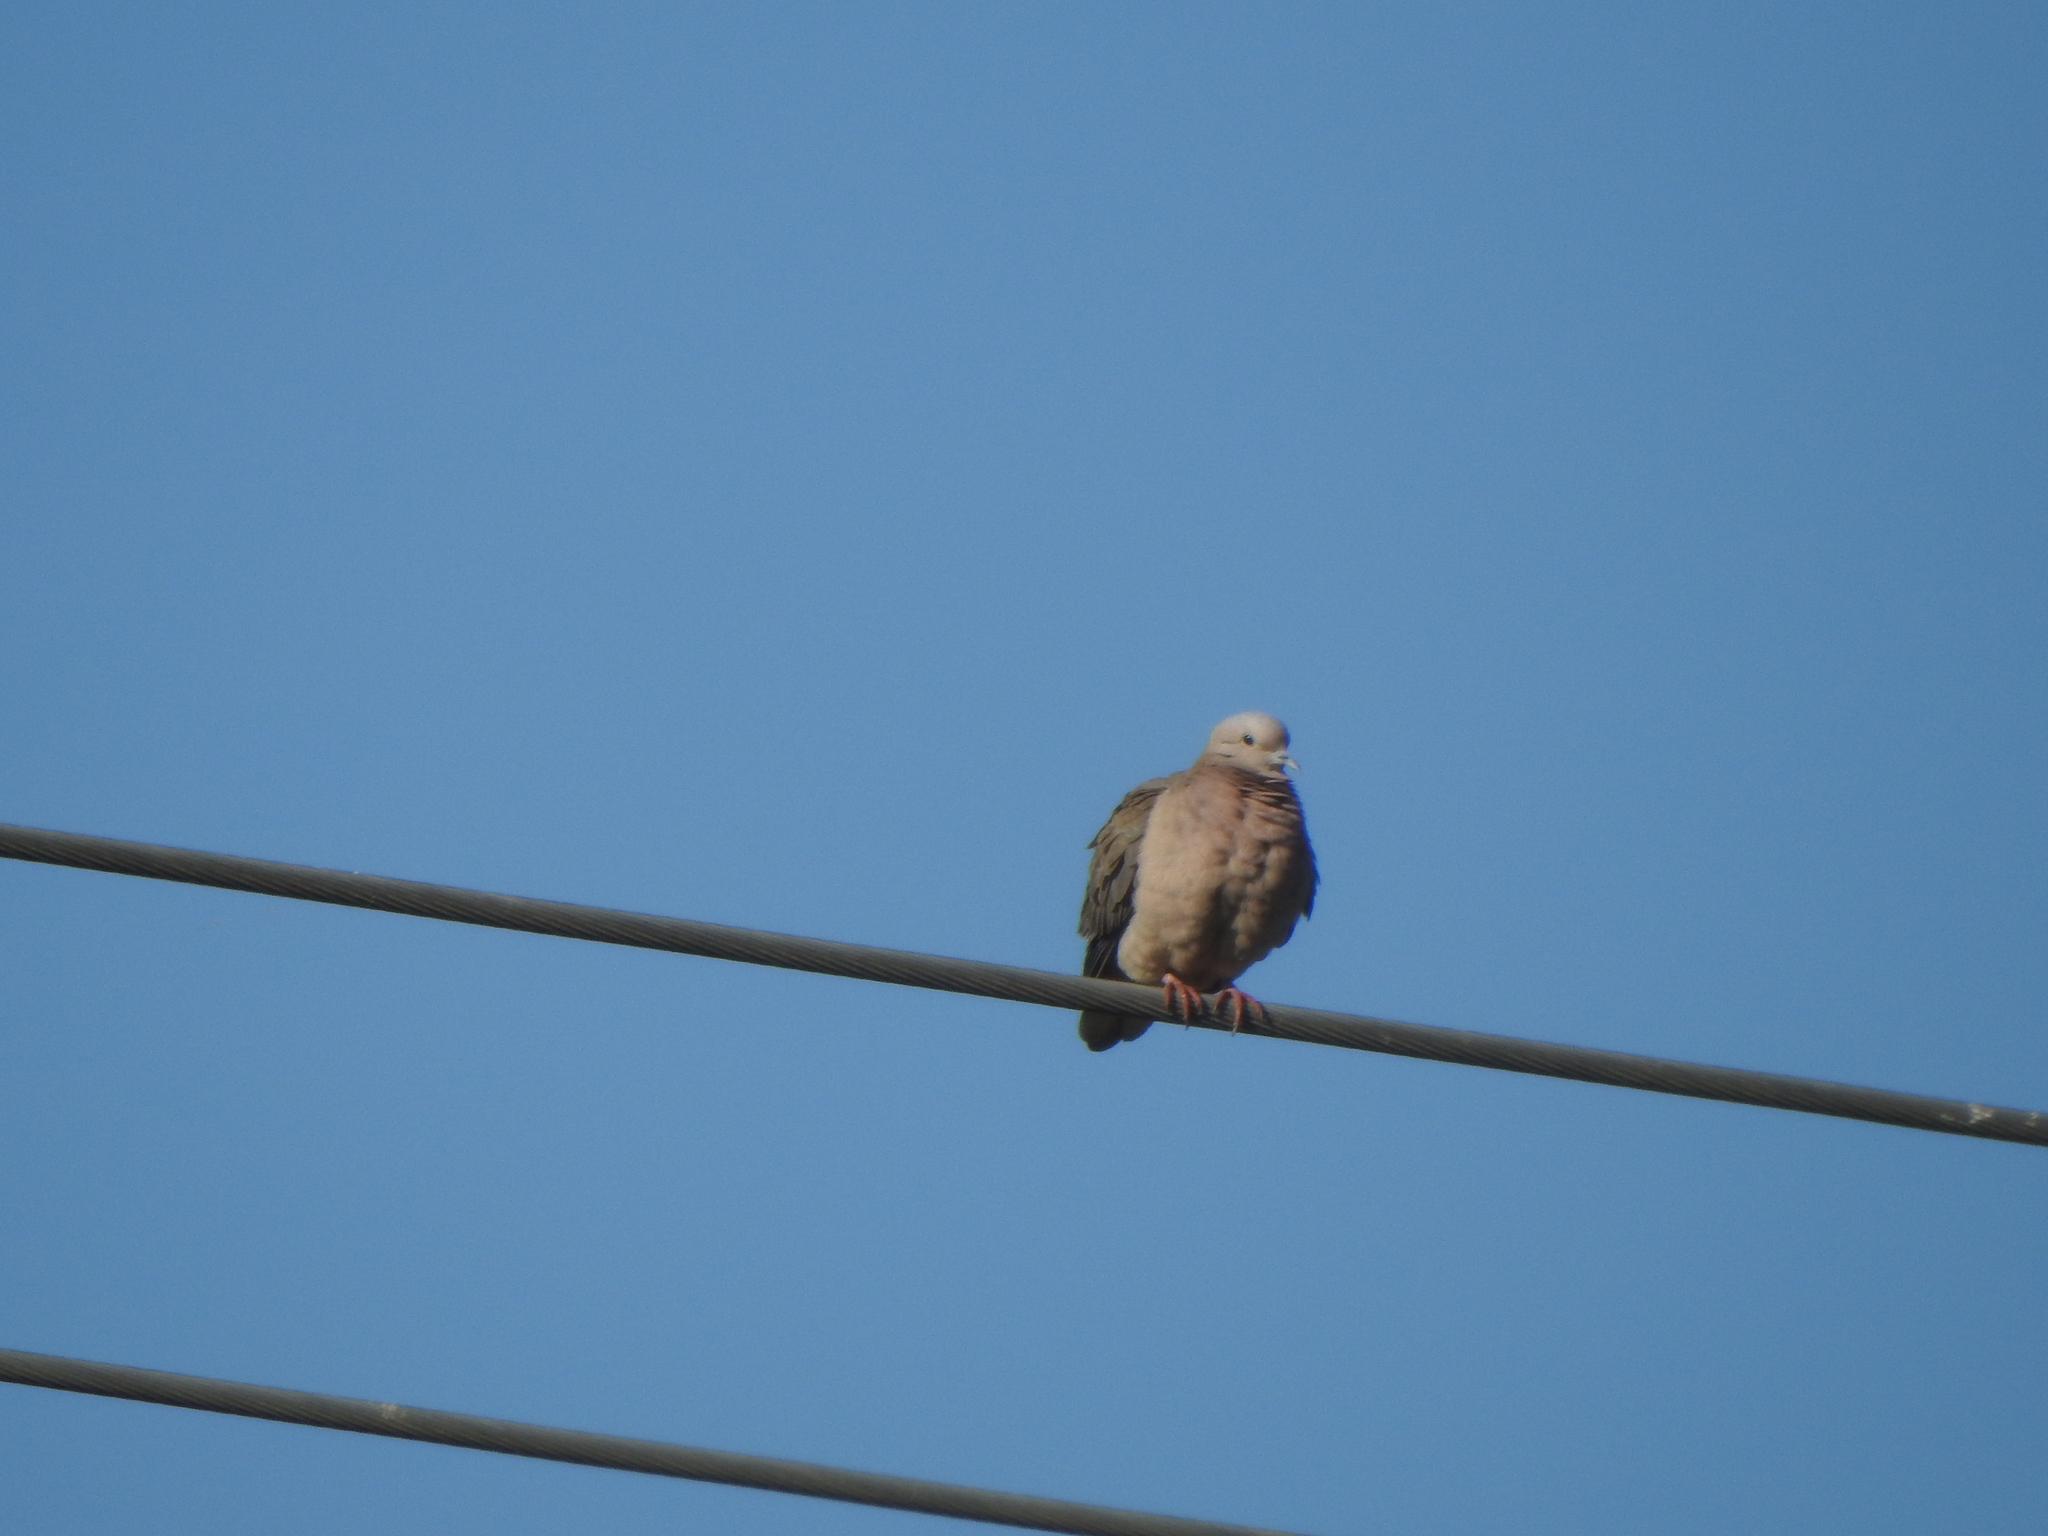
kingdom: Animalia
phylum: Chordata
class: Aves
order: Columbiformes
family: Columbidae
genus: Zenaida
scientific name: Zenaida auriculata
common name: Eared dove
